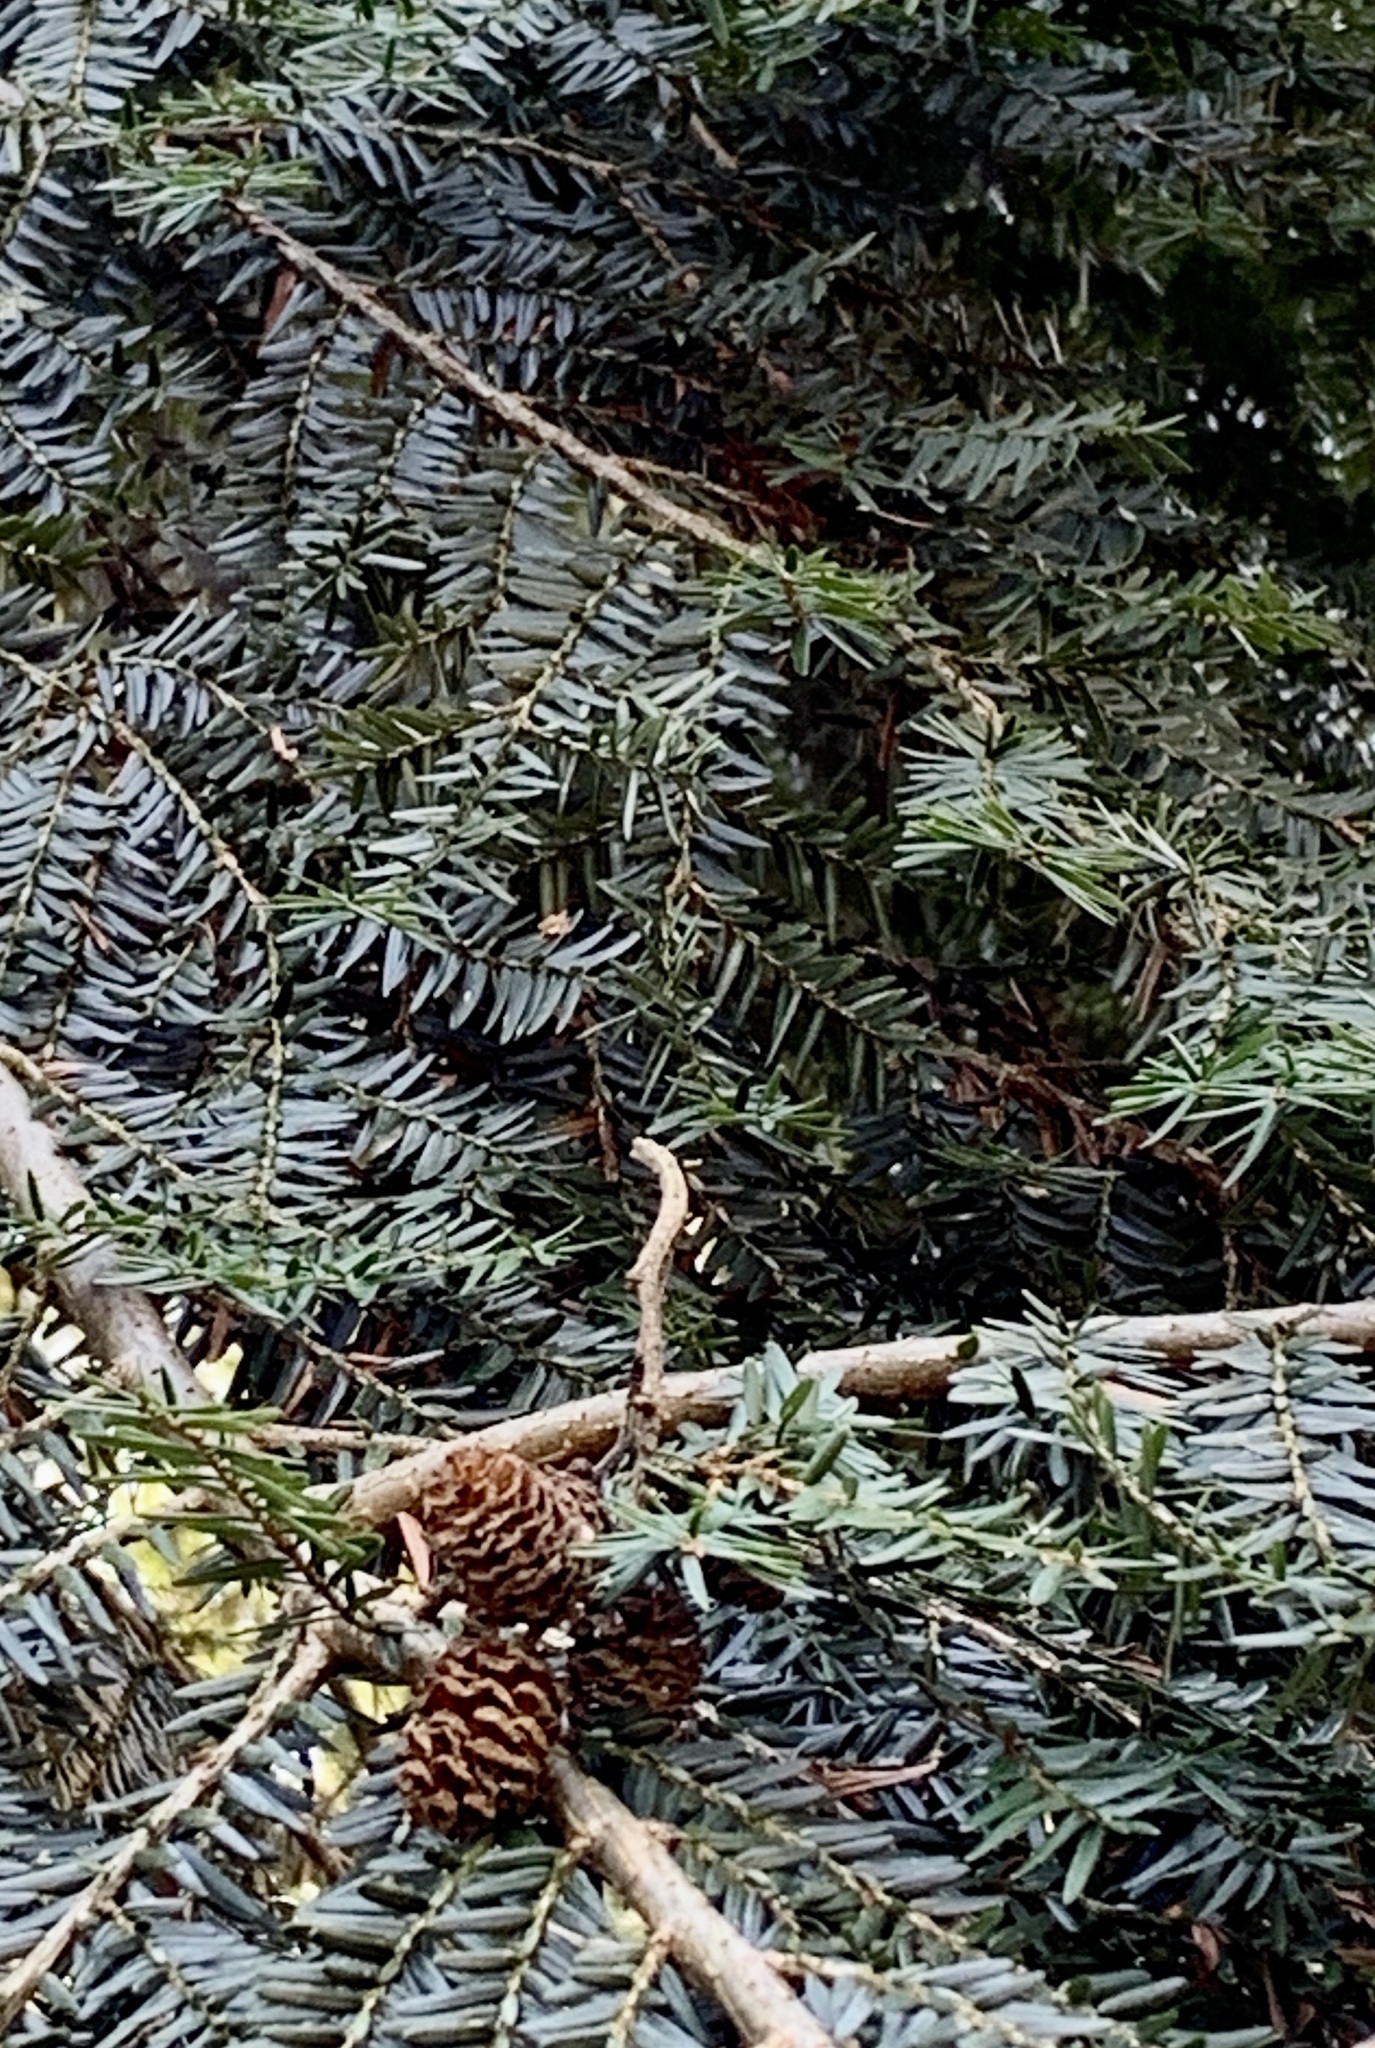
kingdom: Plantae
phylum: Tracheophyta
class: Pinopsida
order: Pinales
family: Pinaceae
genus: Tsuga
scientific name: Tsuga heterophylla
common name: Western hemlock
